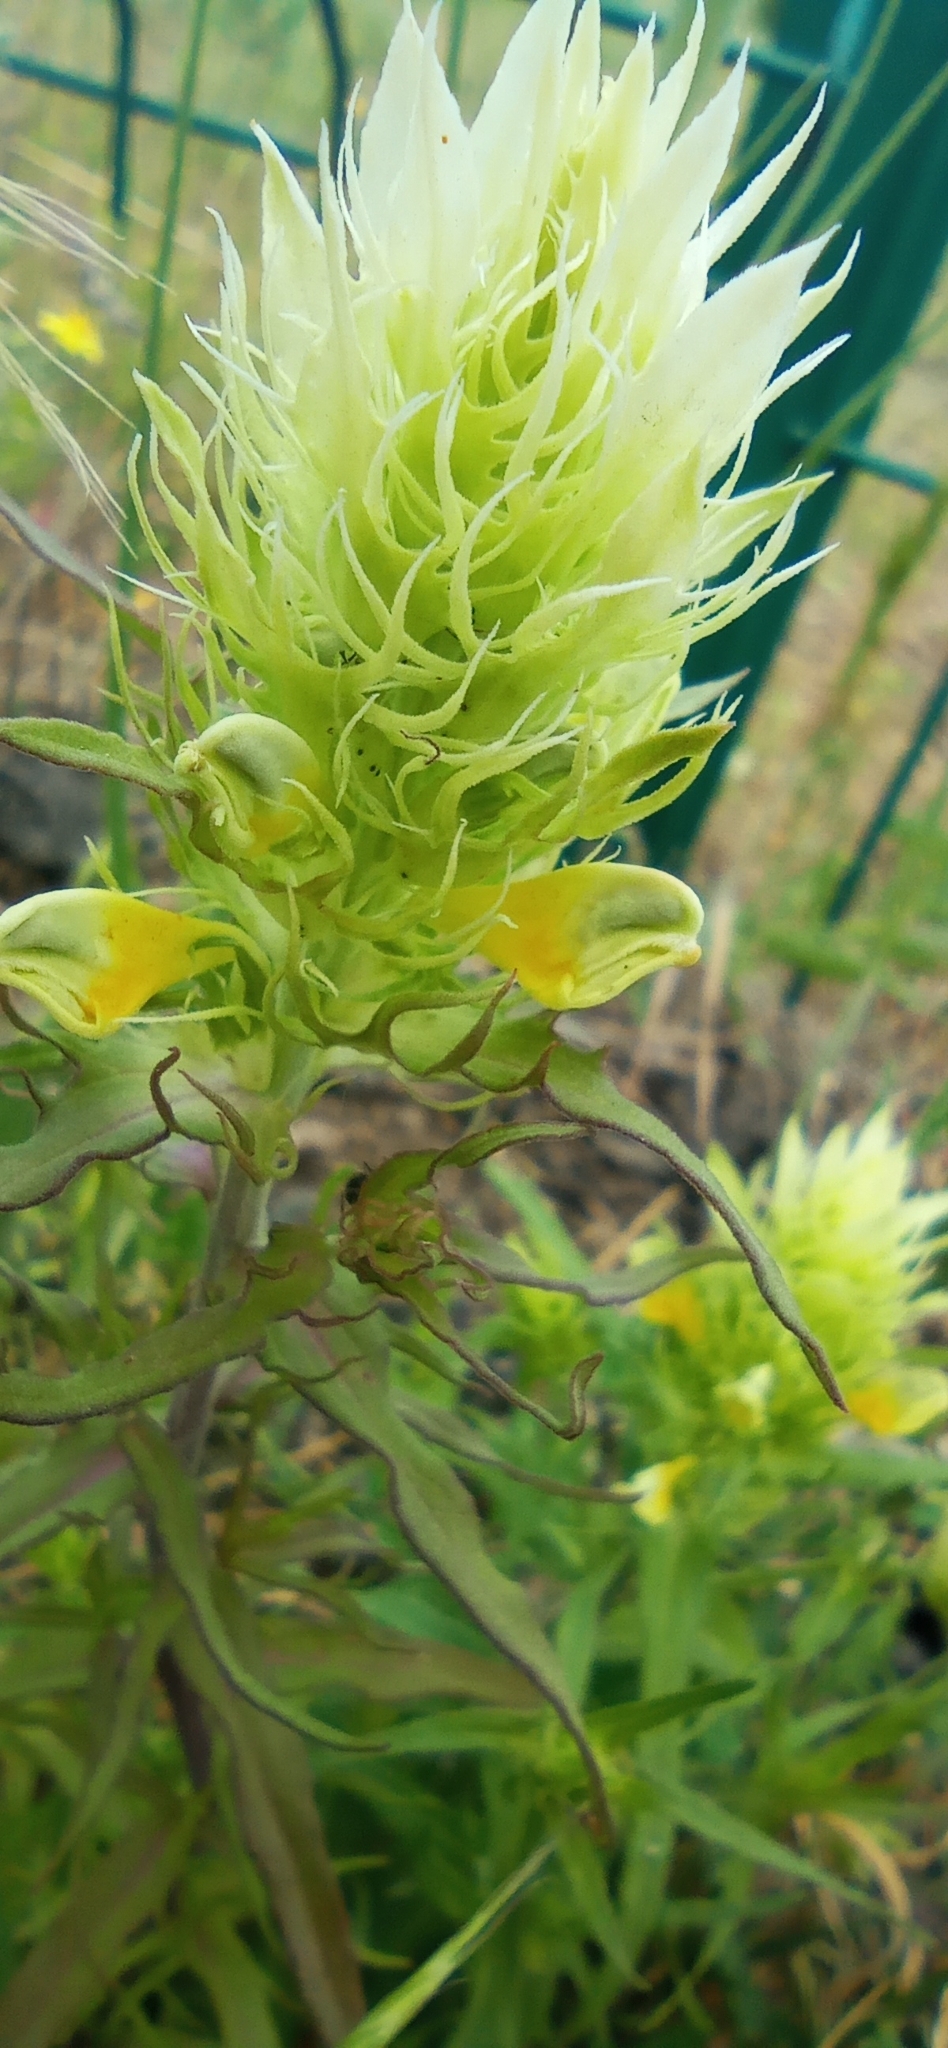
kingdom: Plantae
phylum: Tracheophyta
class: Magnoliopsida
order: Lamiales
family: Orobanchaceae
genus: Melampyrum
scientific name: Melampyrum arvense
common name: Field cow-wheat
